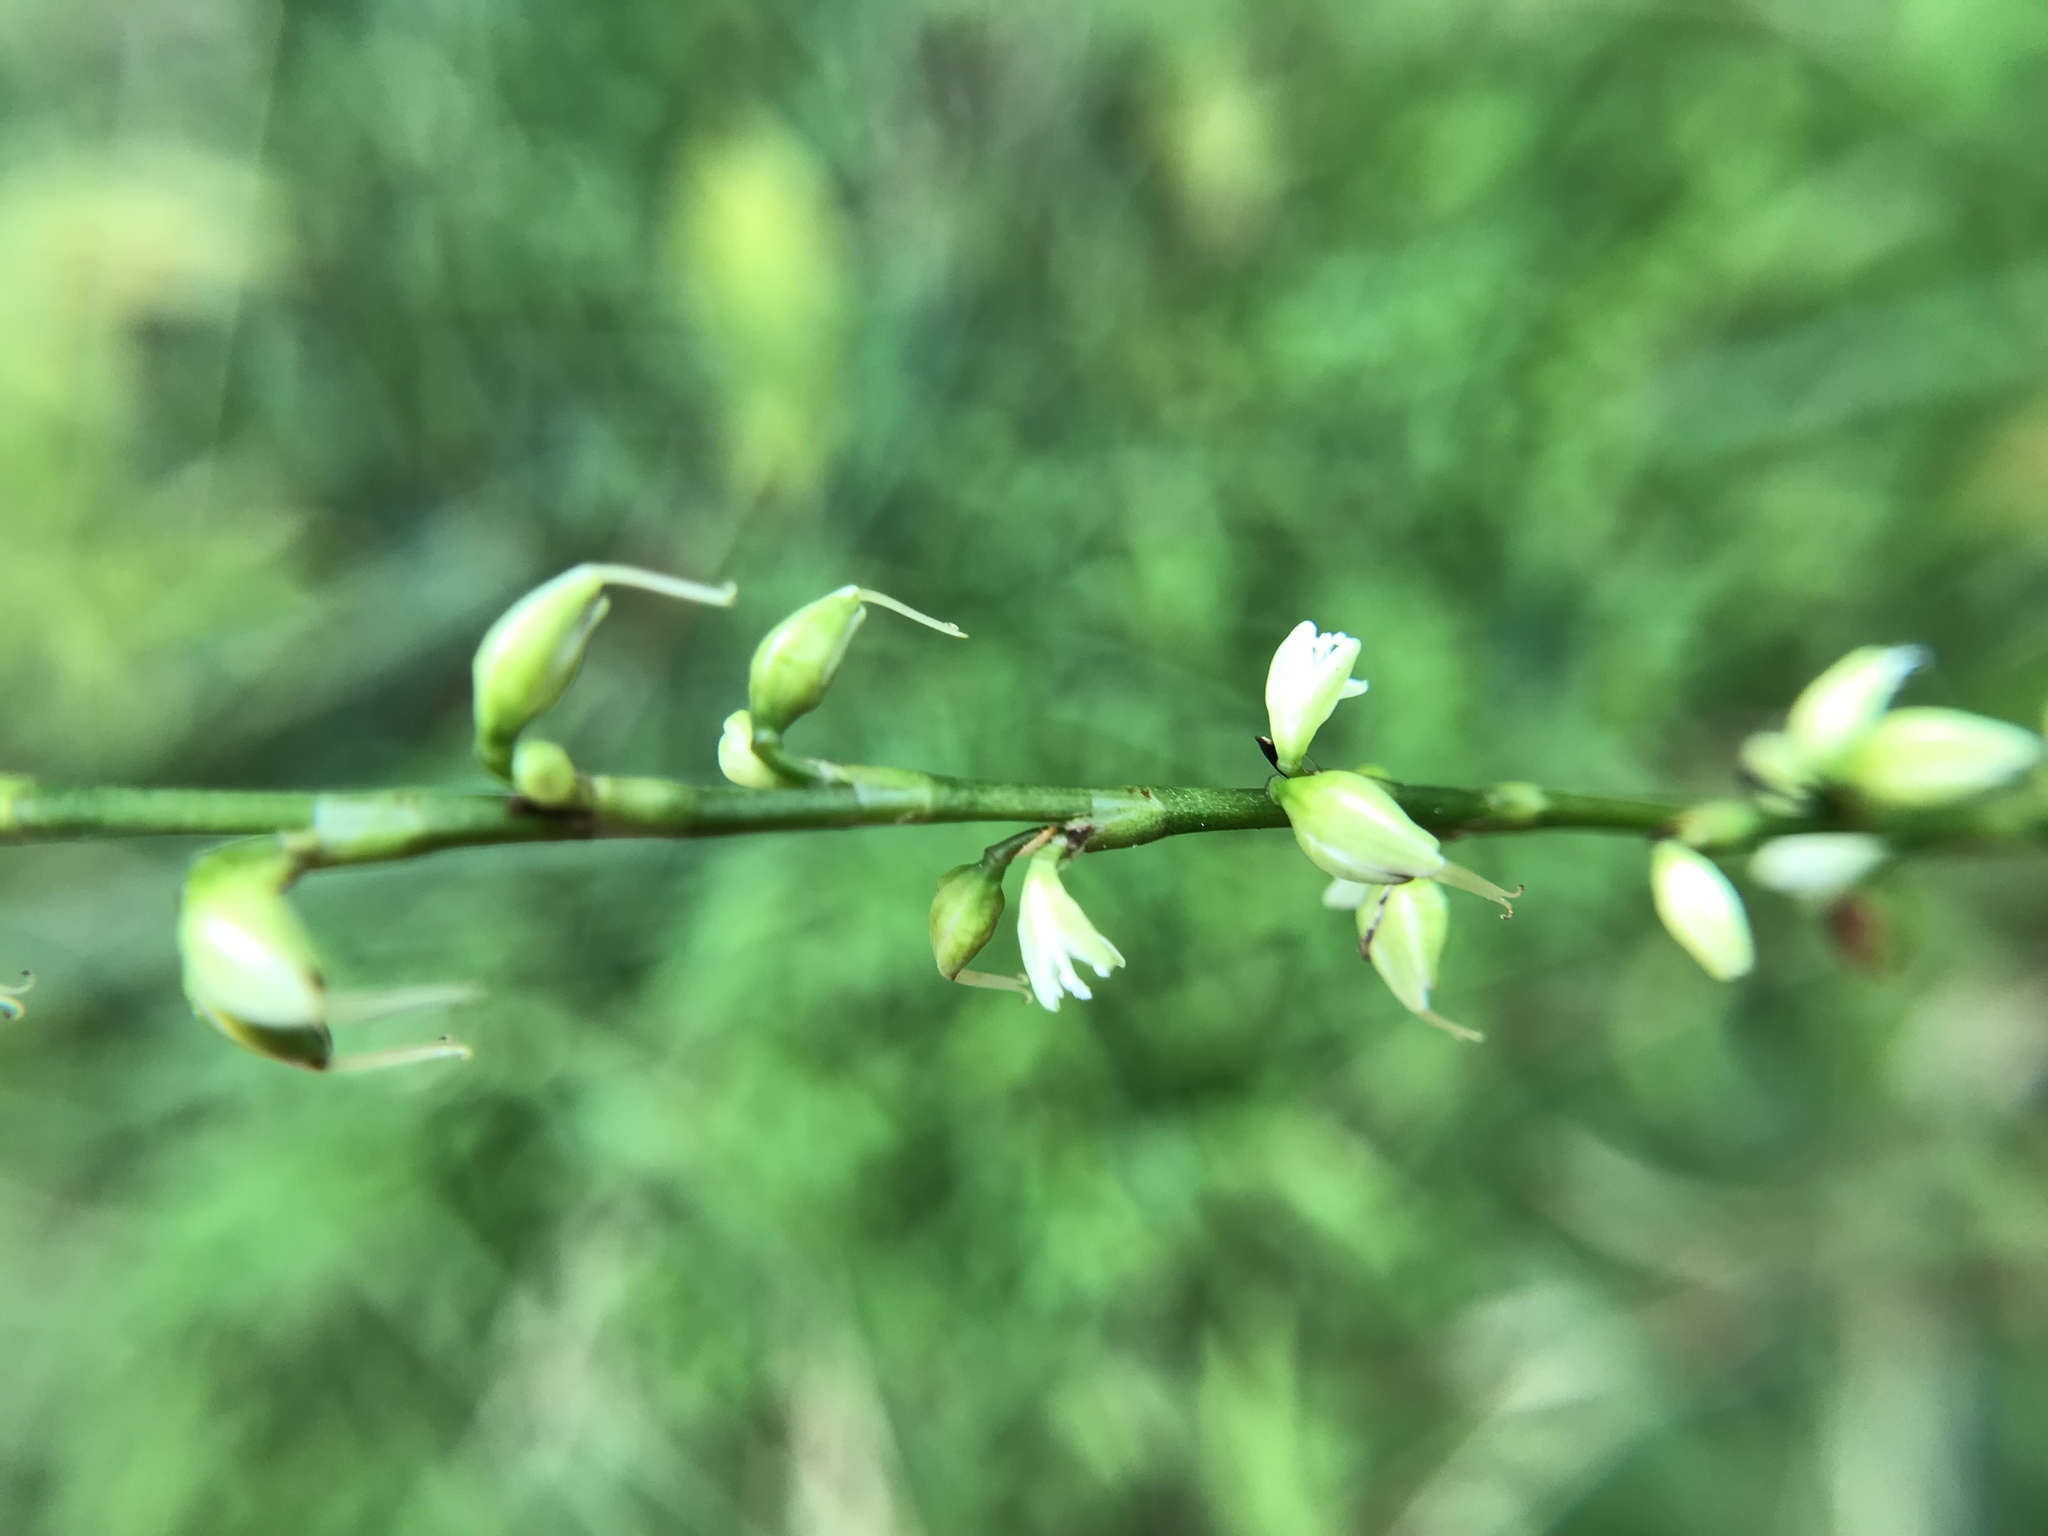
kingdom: Plantae
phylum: Tracheophyta
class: Magnoliopsida
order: Caryophyllales
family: Polygonaceae
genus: Persicaria
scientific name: Persicaria virginiana
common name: Jumpseed
